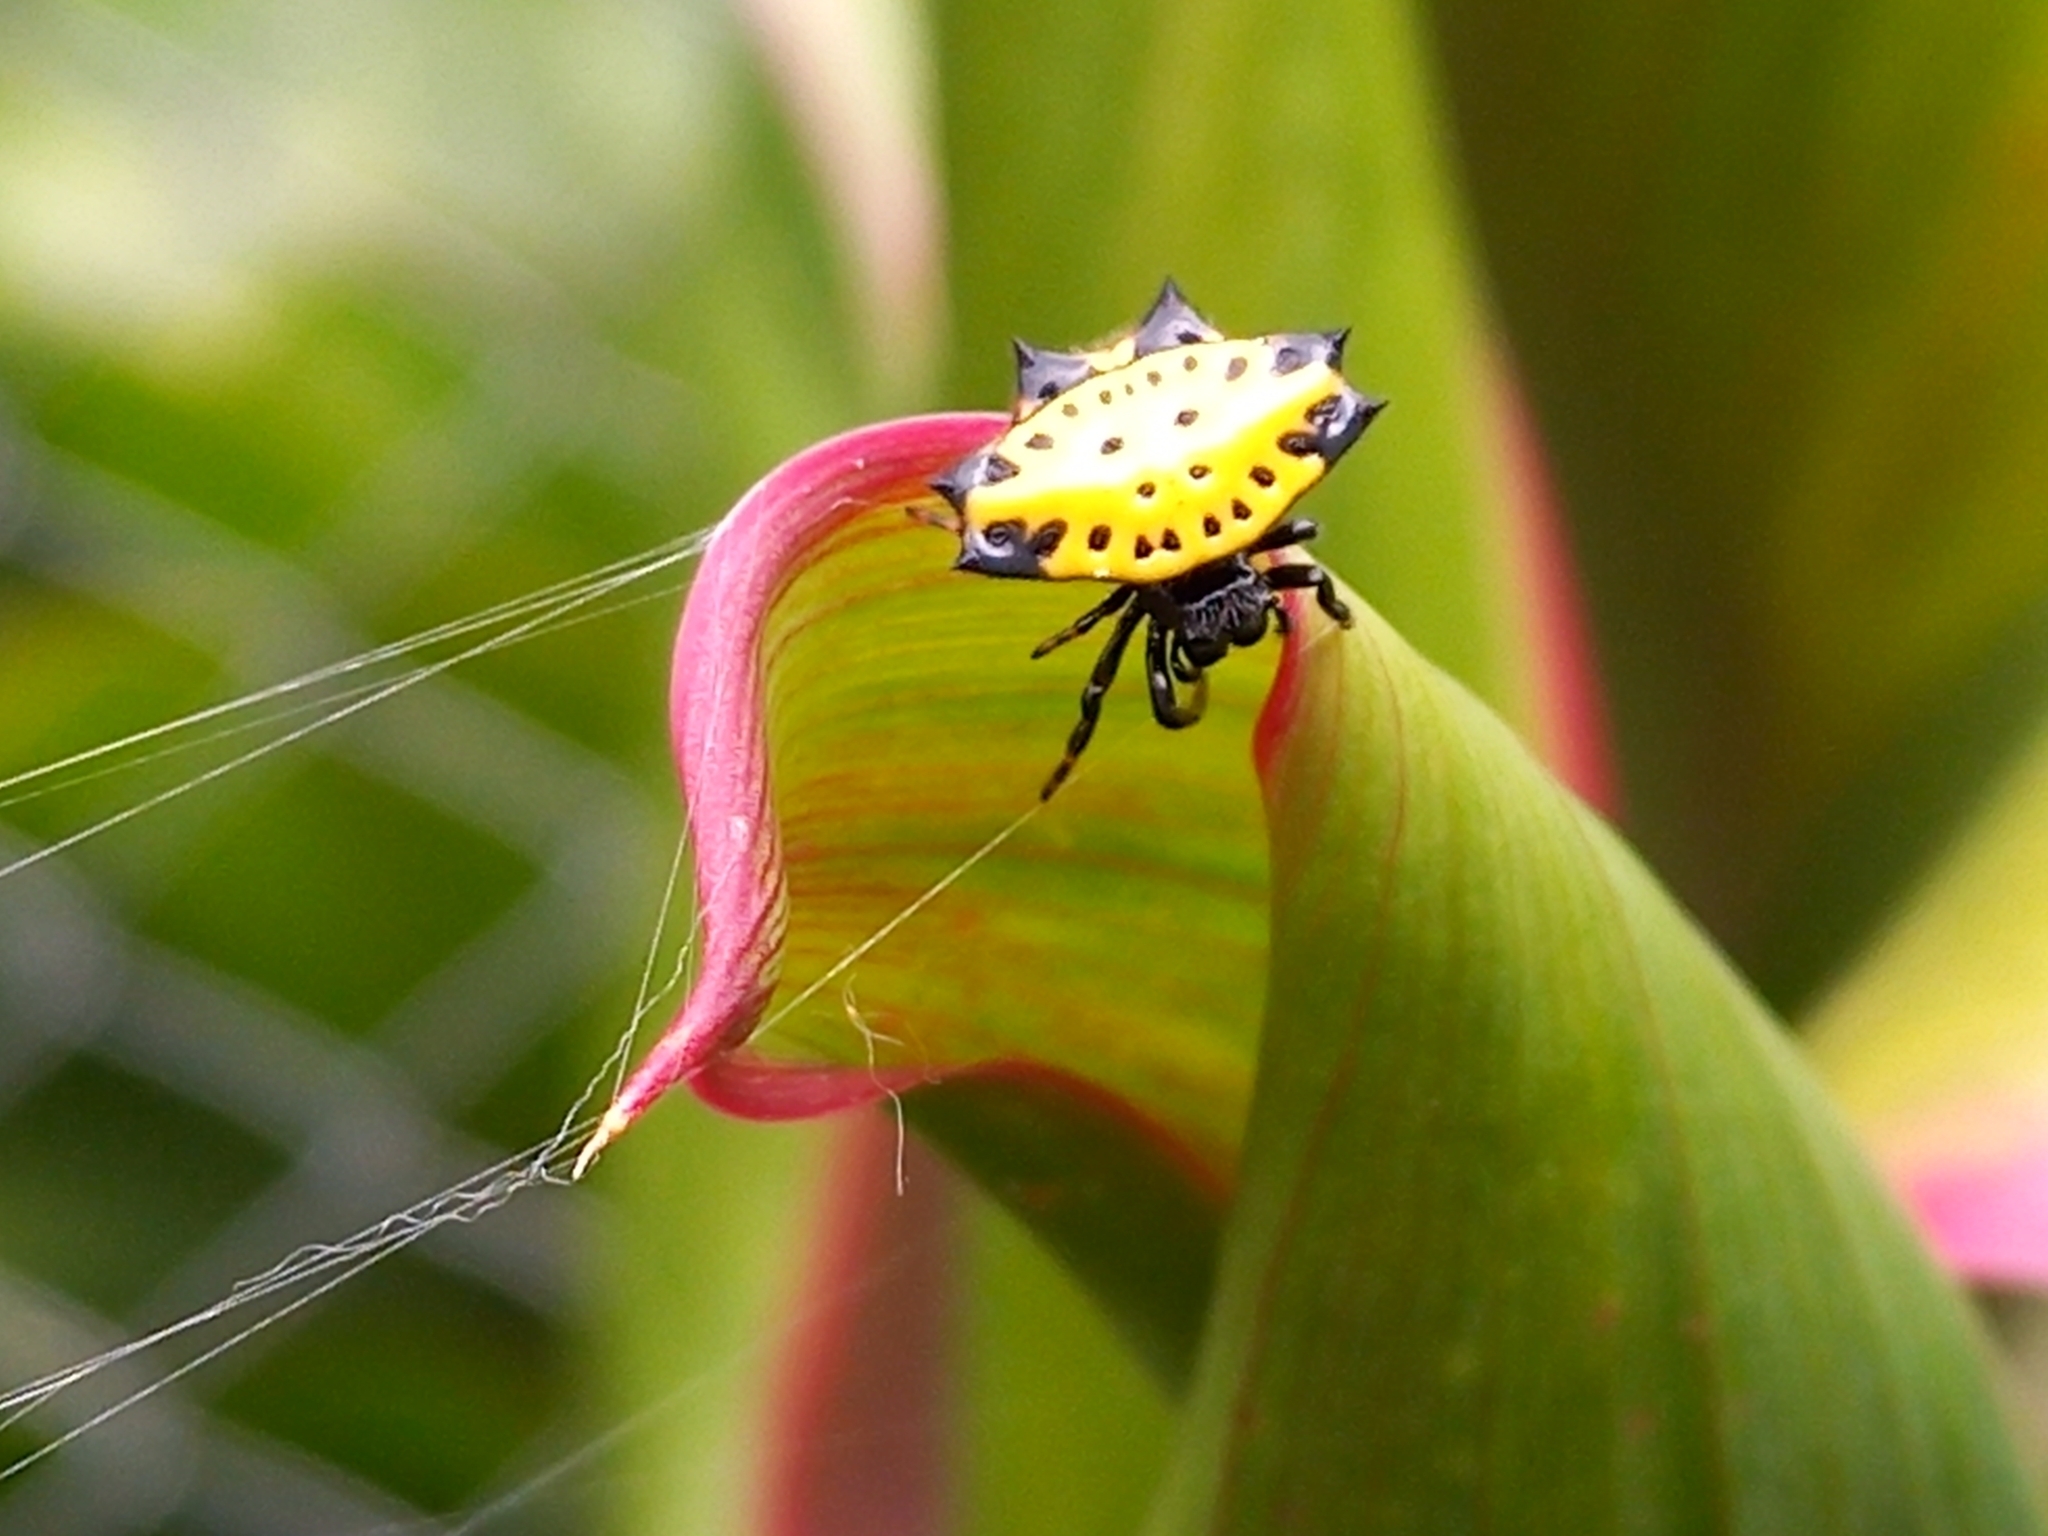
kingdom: Animalia
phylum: Arthropoda
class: Arachnida
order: Araneae
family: Araneidae
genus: Gasteracantha
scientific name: Gasteracantha cancriformis
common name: Orb weavers
